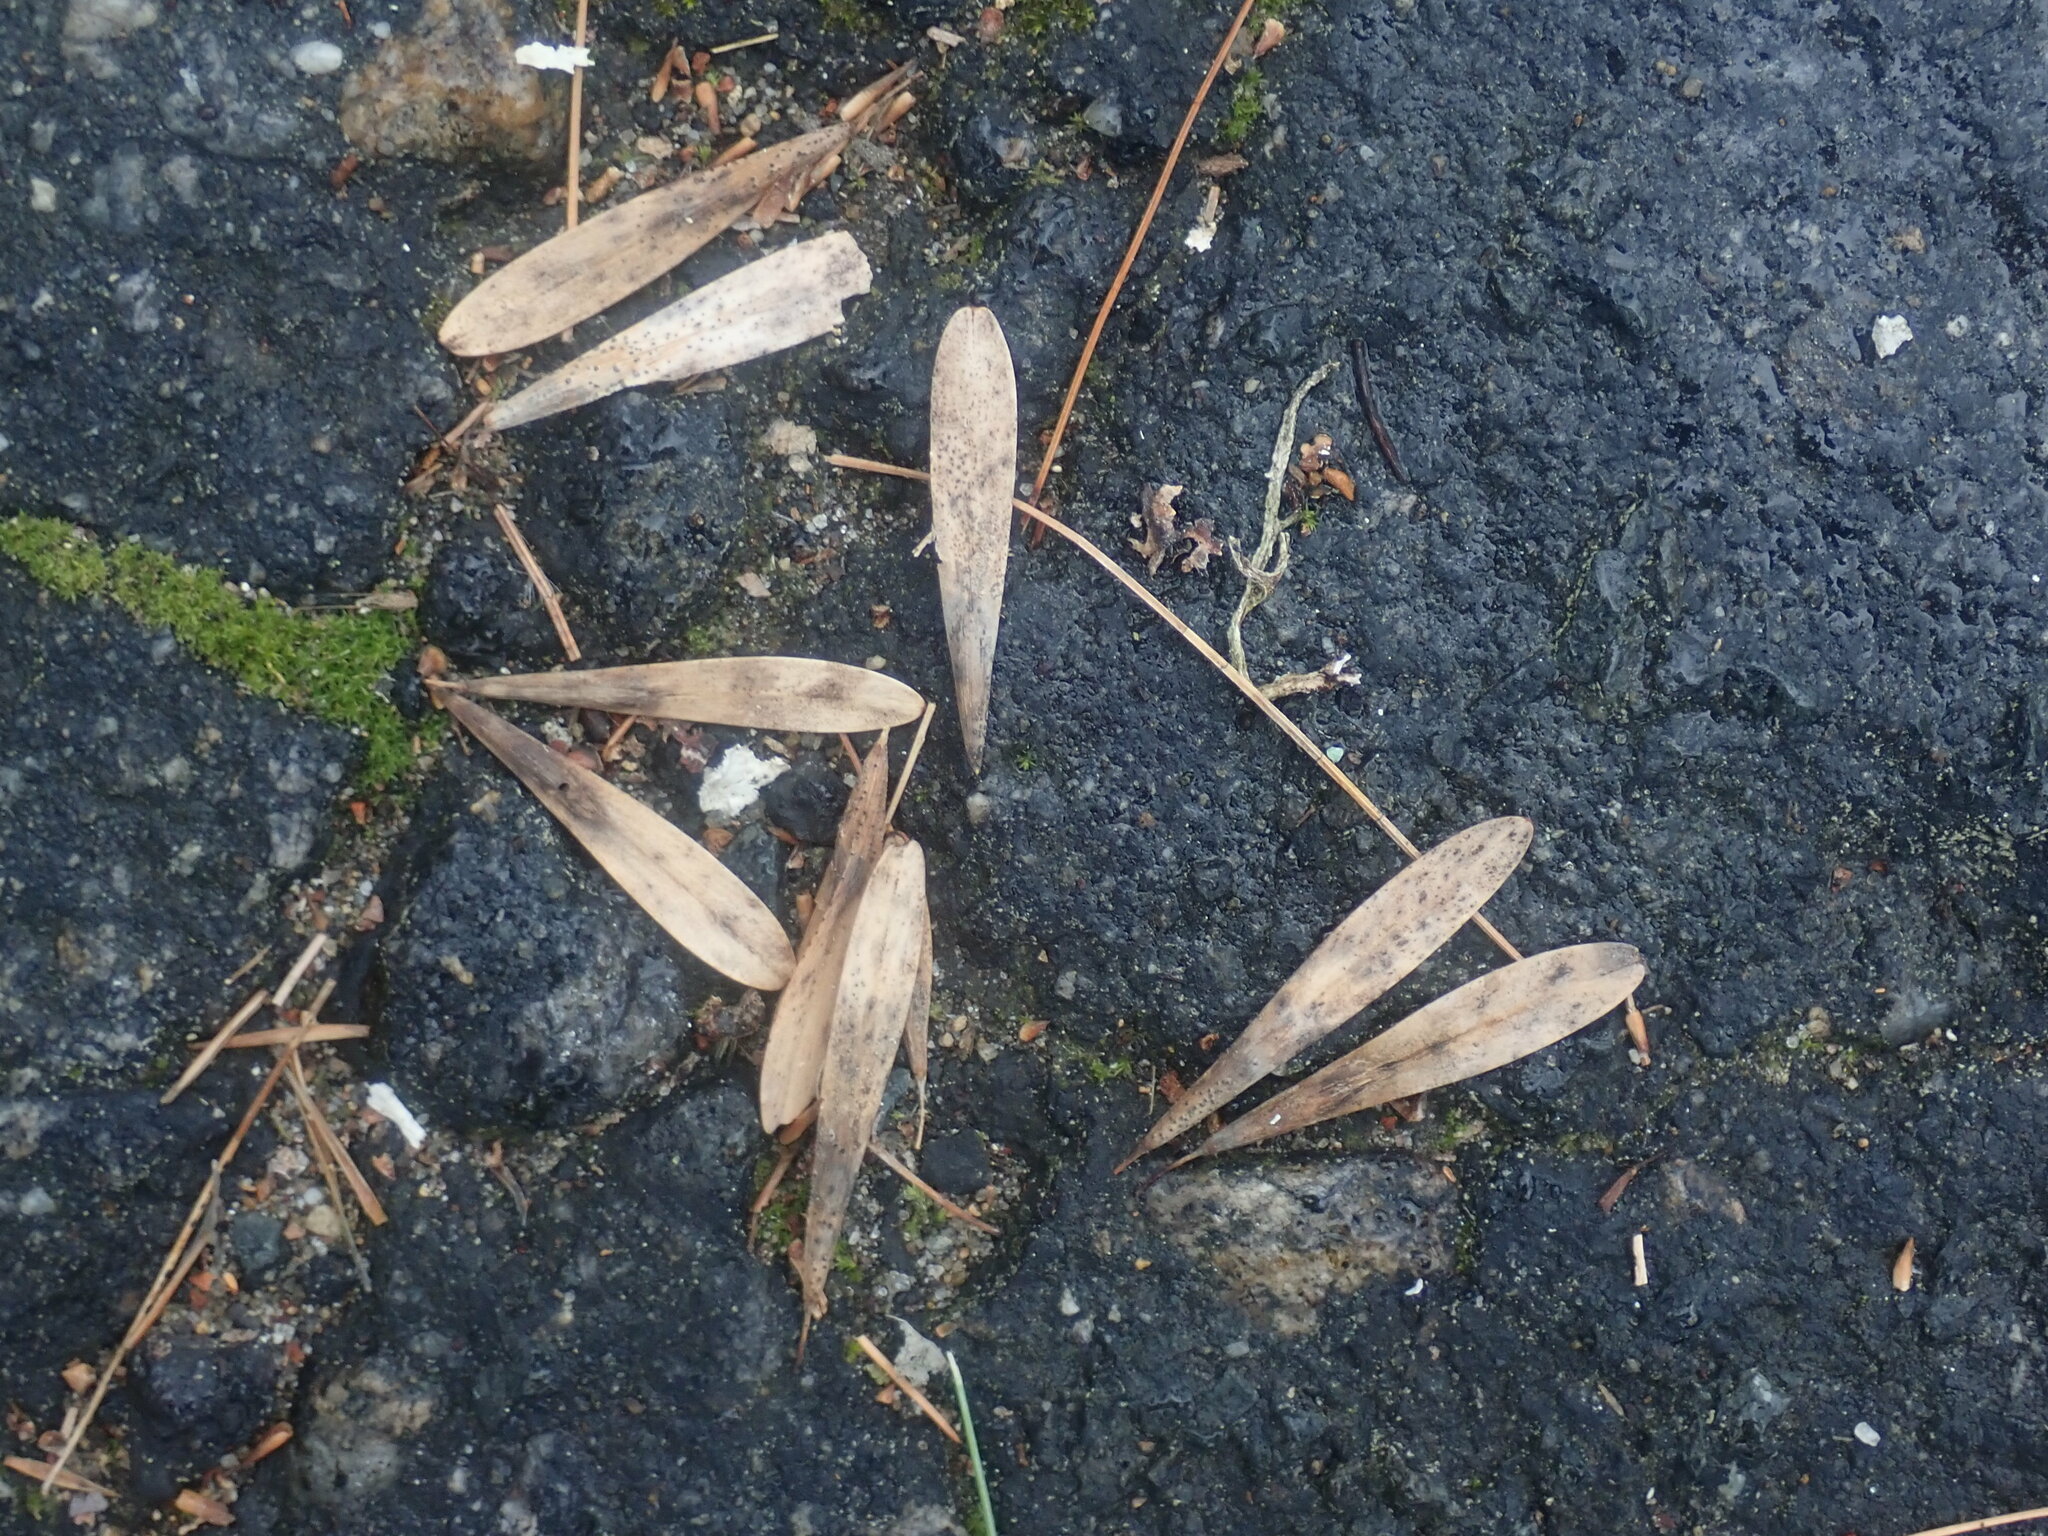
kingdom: Plantae
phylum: Tracheophyta
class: Magnoliopsida
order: Lamiales
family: Oleaceae
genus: Fraxinus
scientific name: Fraxinus americana
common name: White ash
